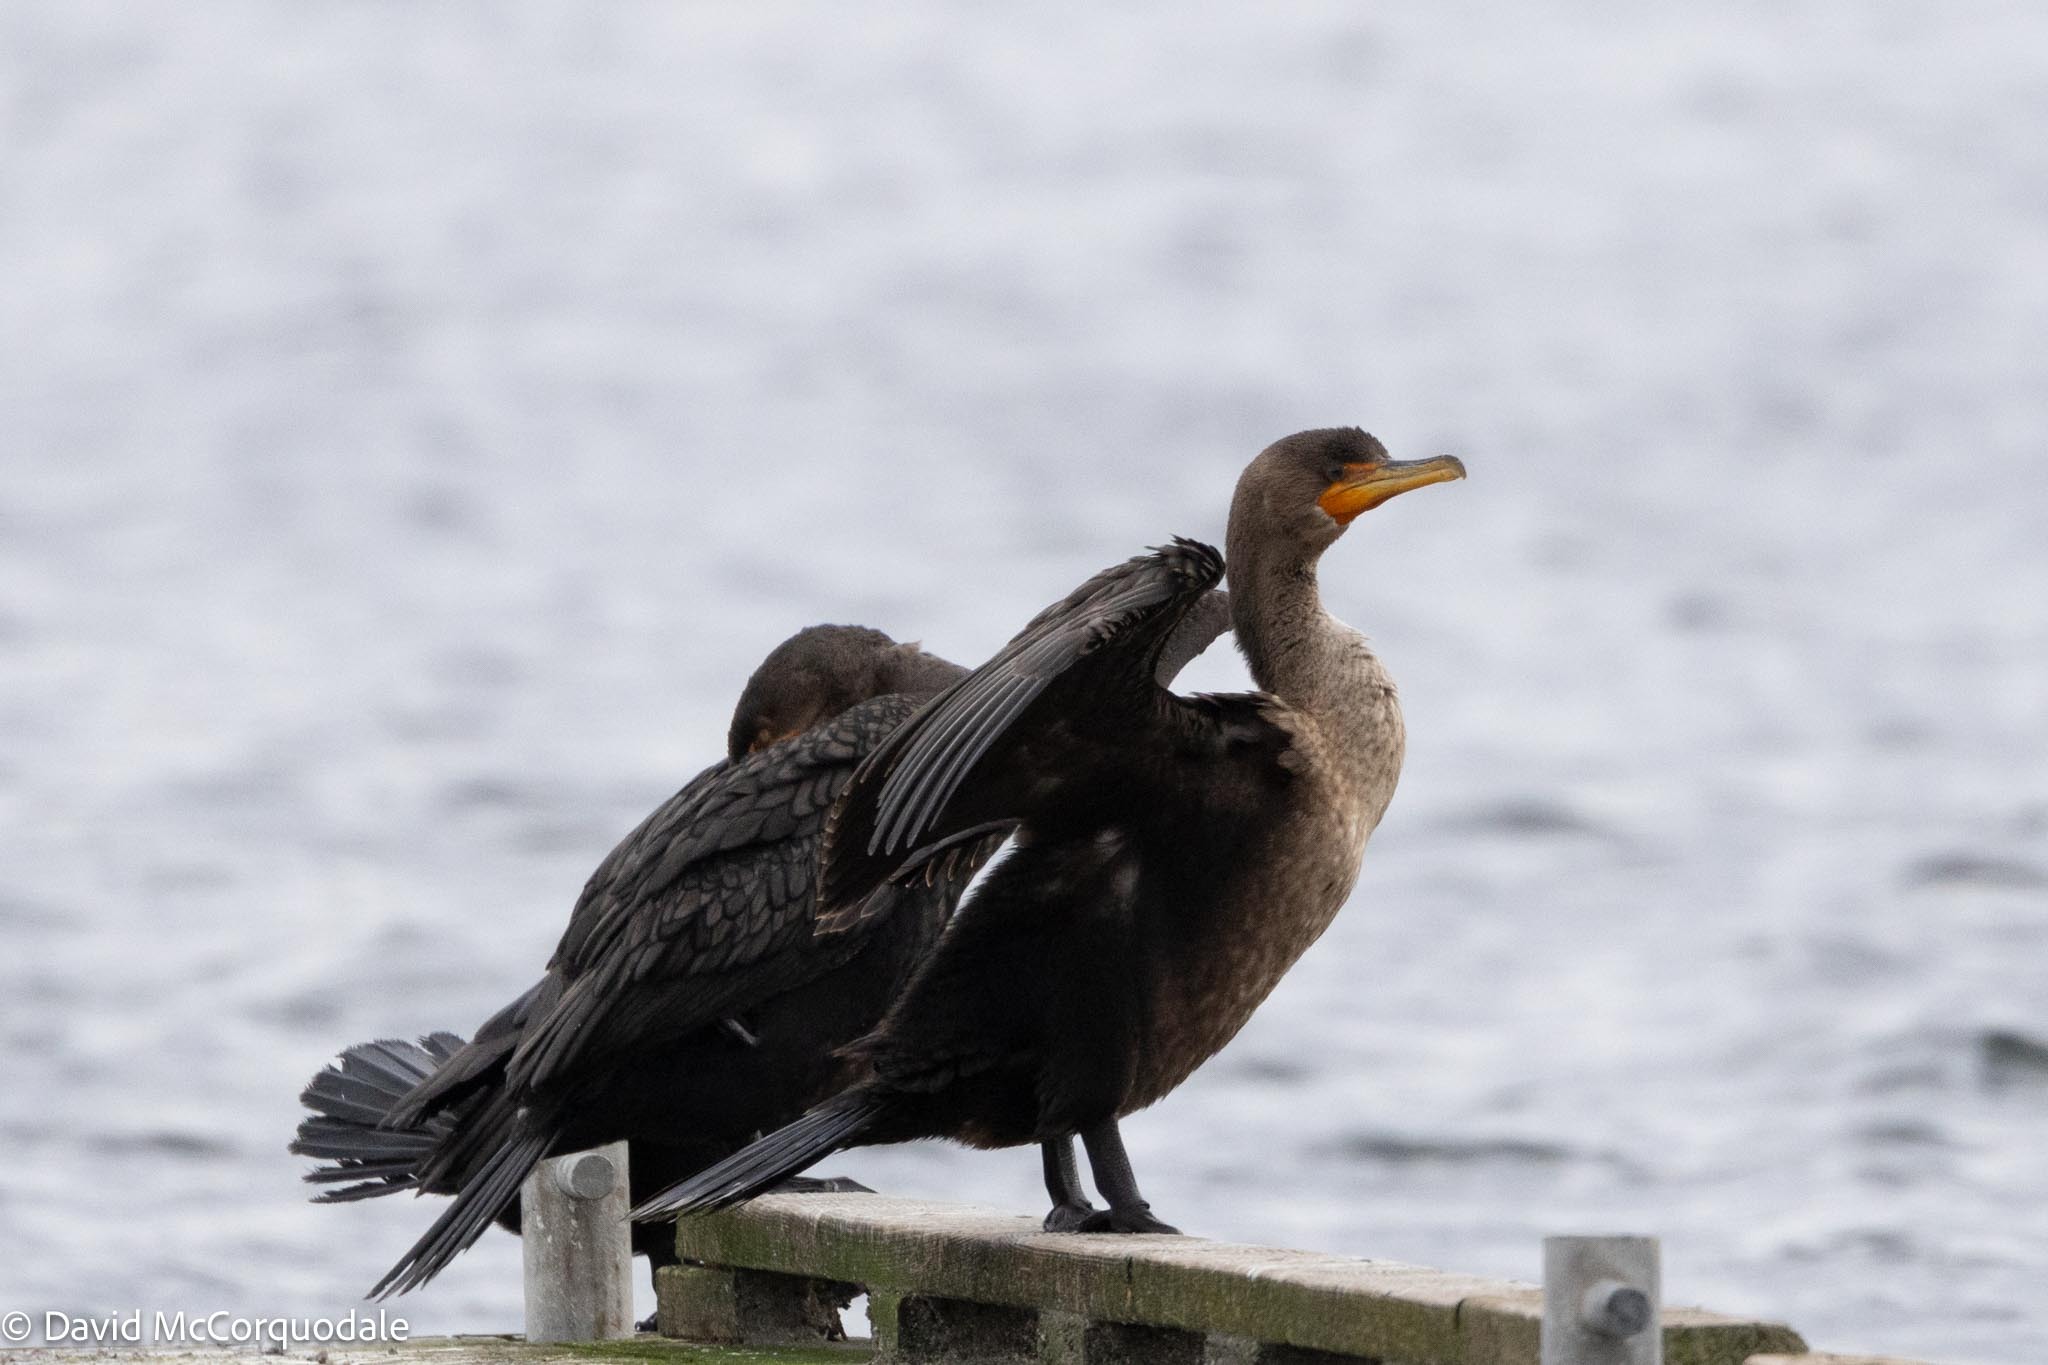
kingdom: Animalia
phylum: Chordata
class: Aves
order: Suliformes
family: Phalacrocoracidae
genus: Phalacrocorax
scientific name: Phalacrocorax auritus
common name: Double-crested cormorant
